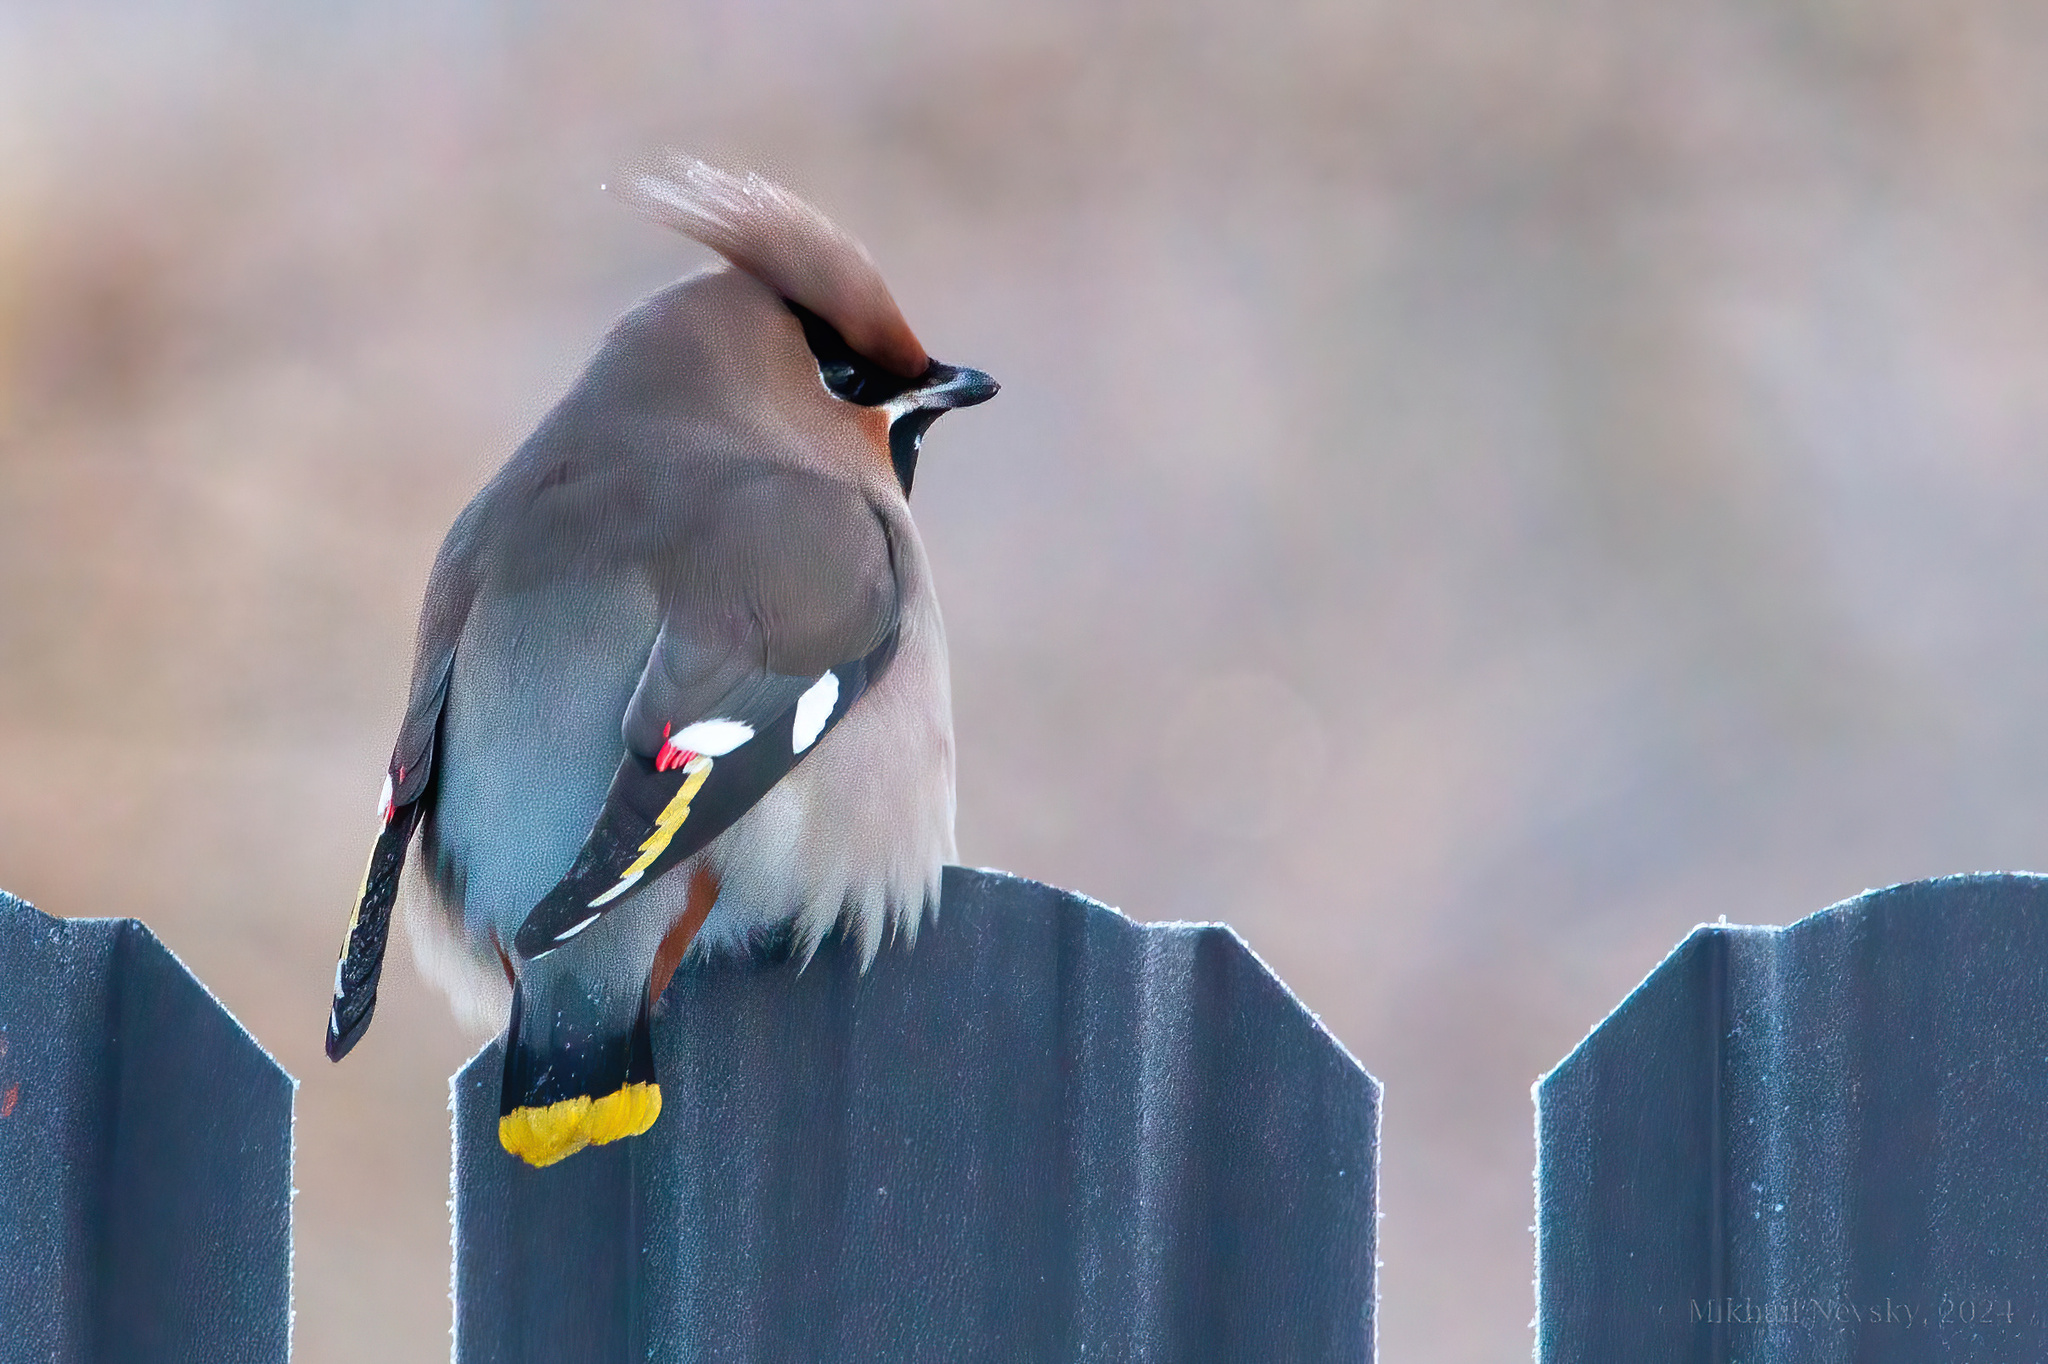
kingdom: Animalia
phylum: Chordata
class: Aves
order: Passeriformes
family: Bombycillidae
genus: Bombycilla
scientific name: Bombycilla garrulus
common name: Bohemian waxwing
